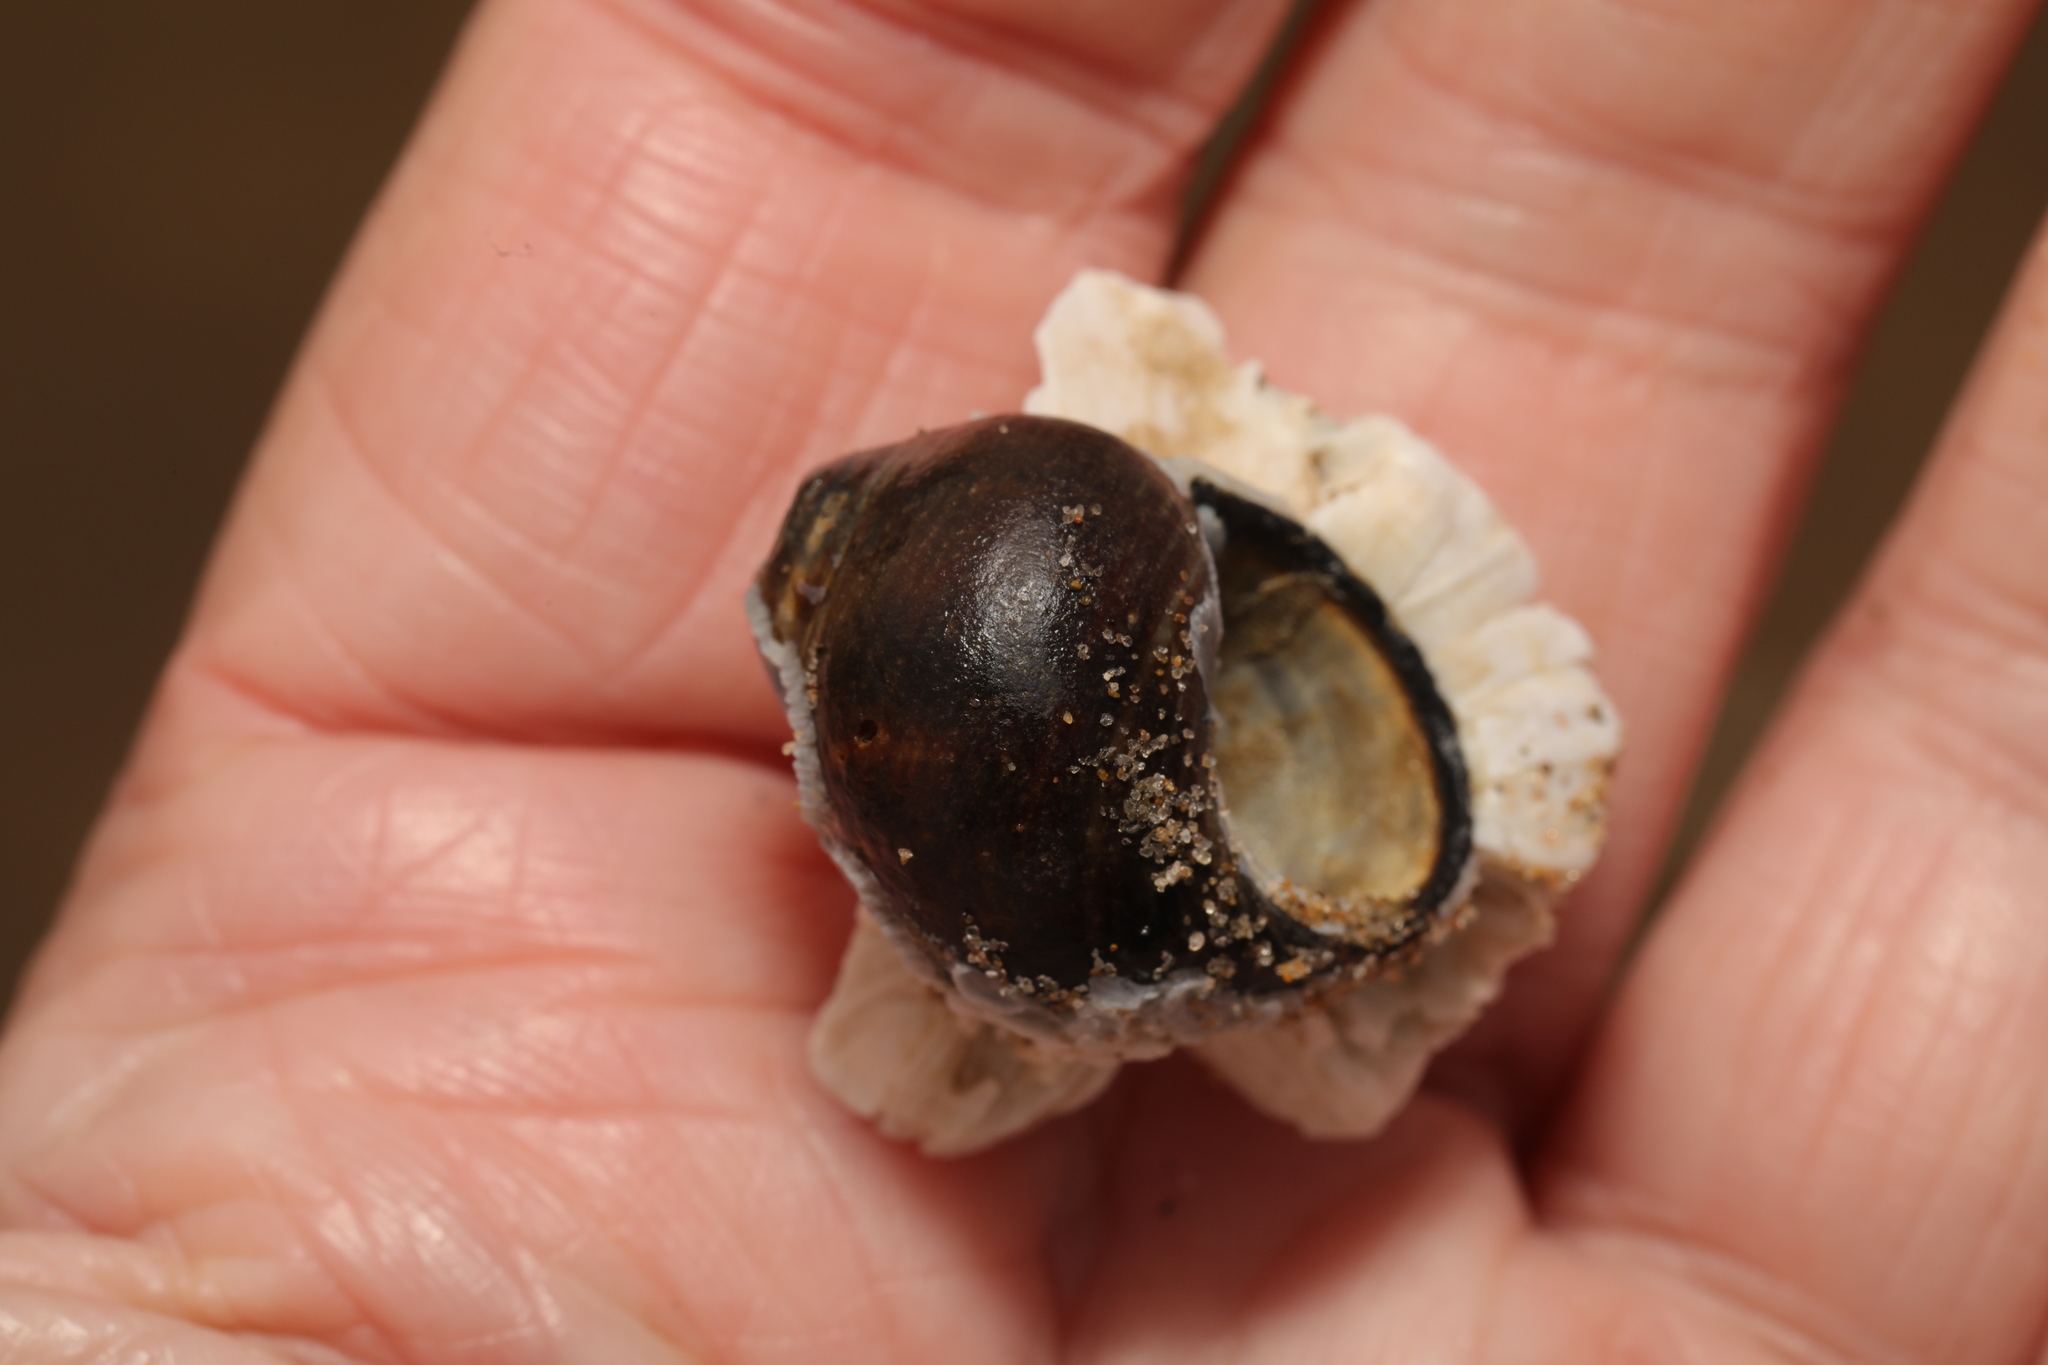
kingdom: Animalia
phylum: Mollusca
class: Gastropoda
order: Littorinimorpha
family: Littorinidae
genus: Littorina
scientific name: Littorina littorea
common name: Common periwinkle
